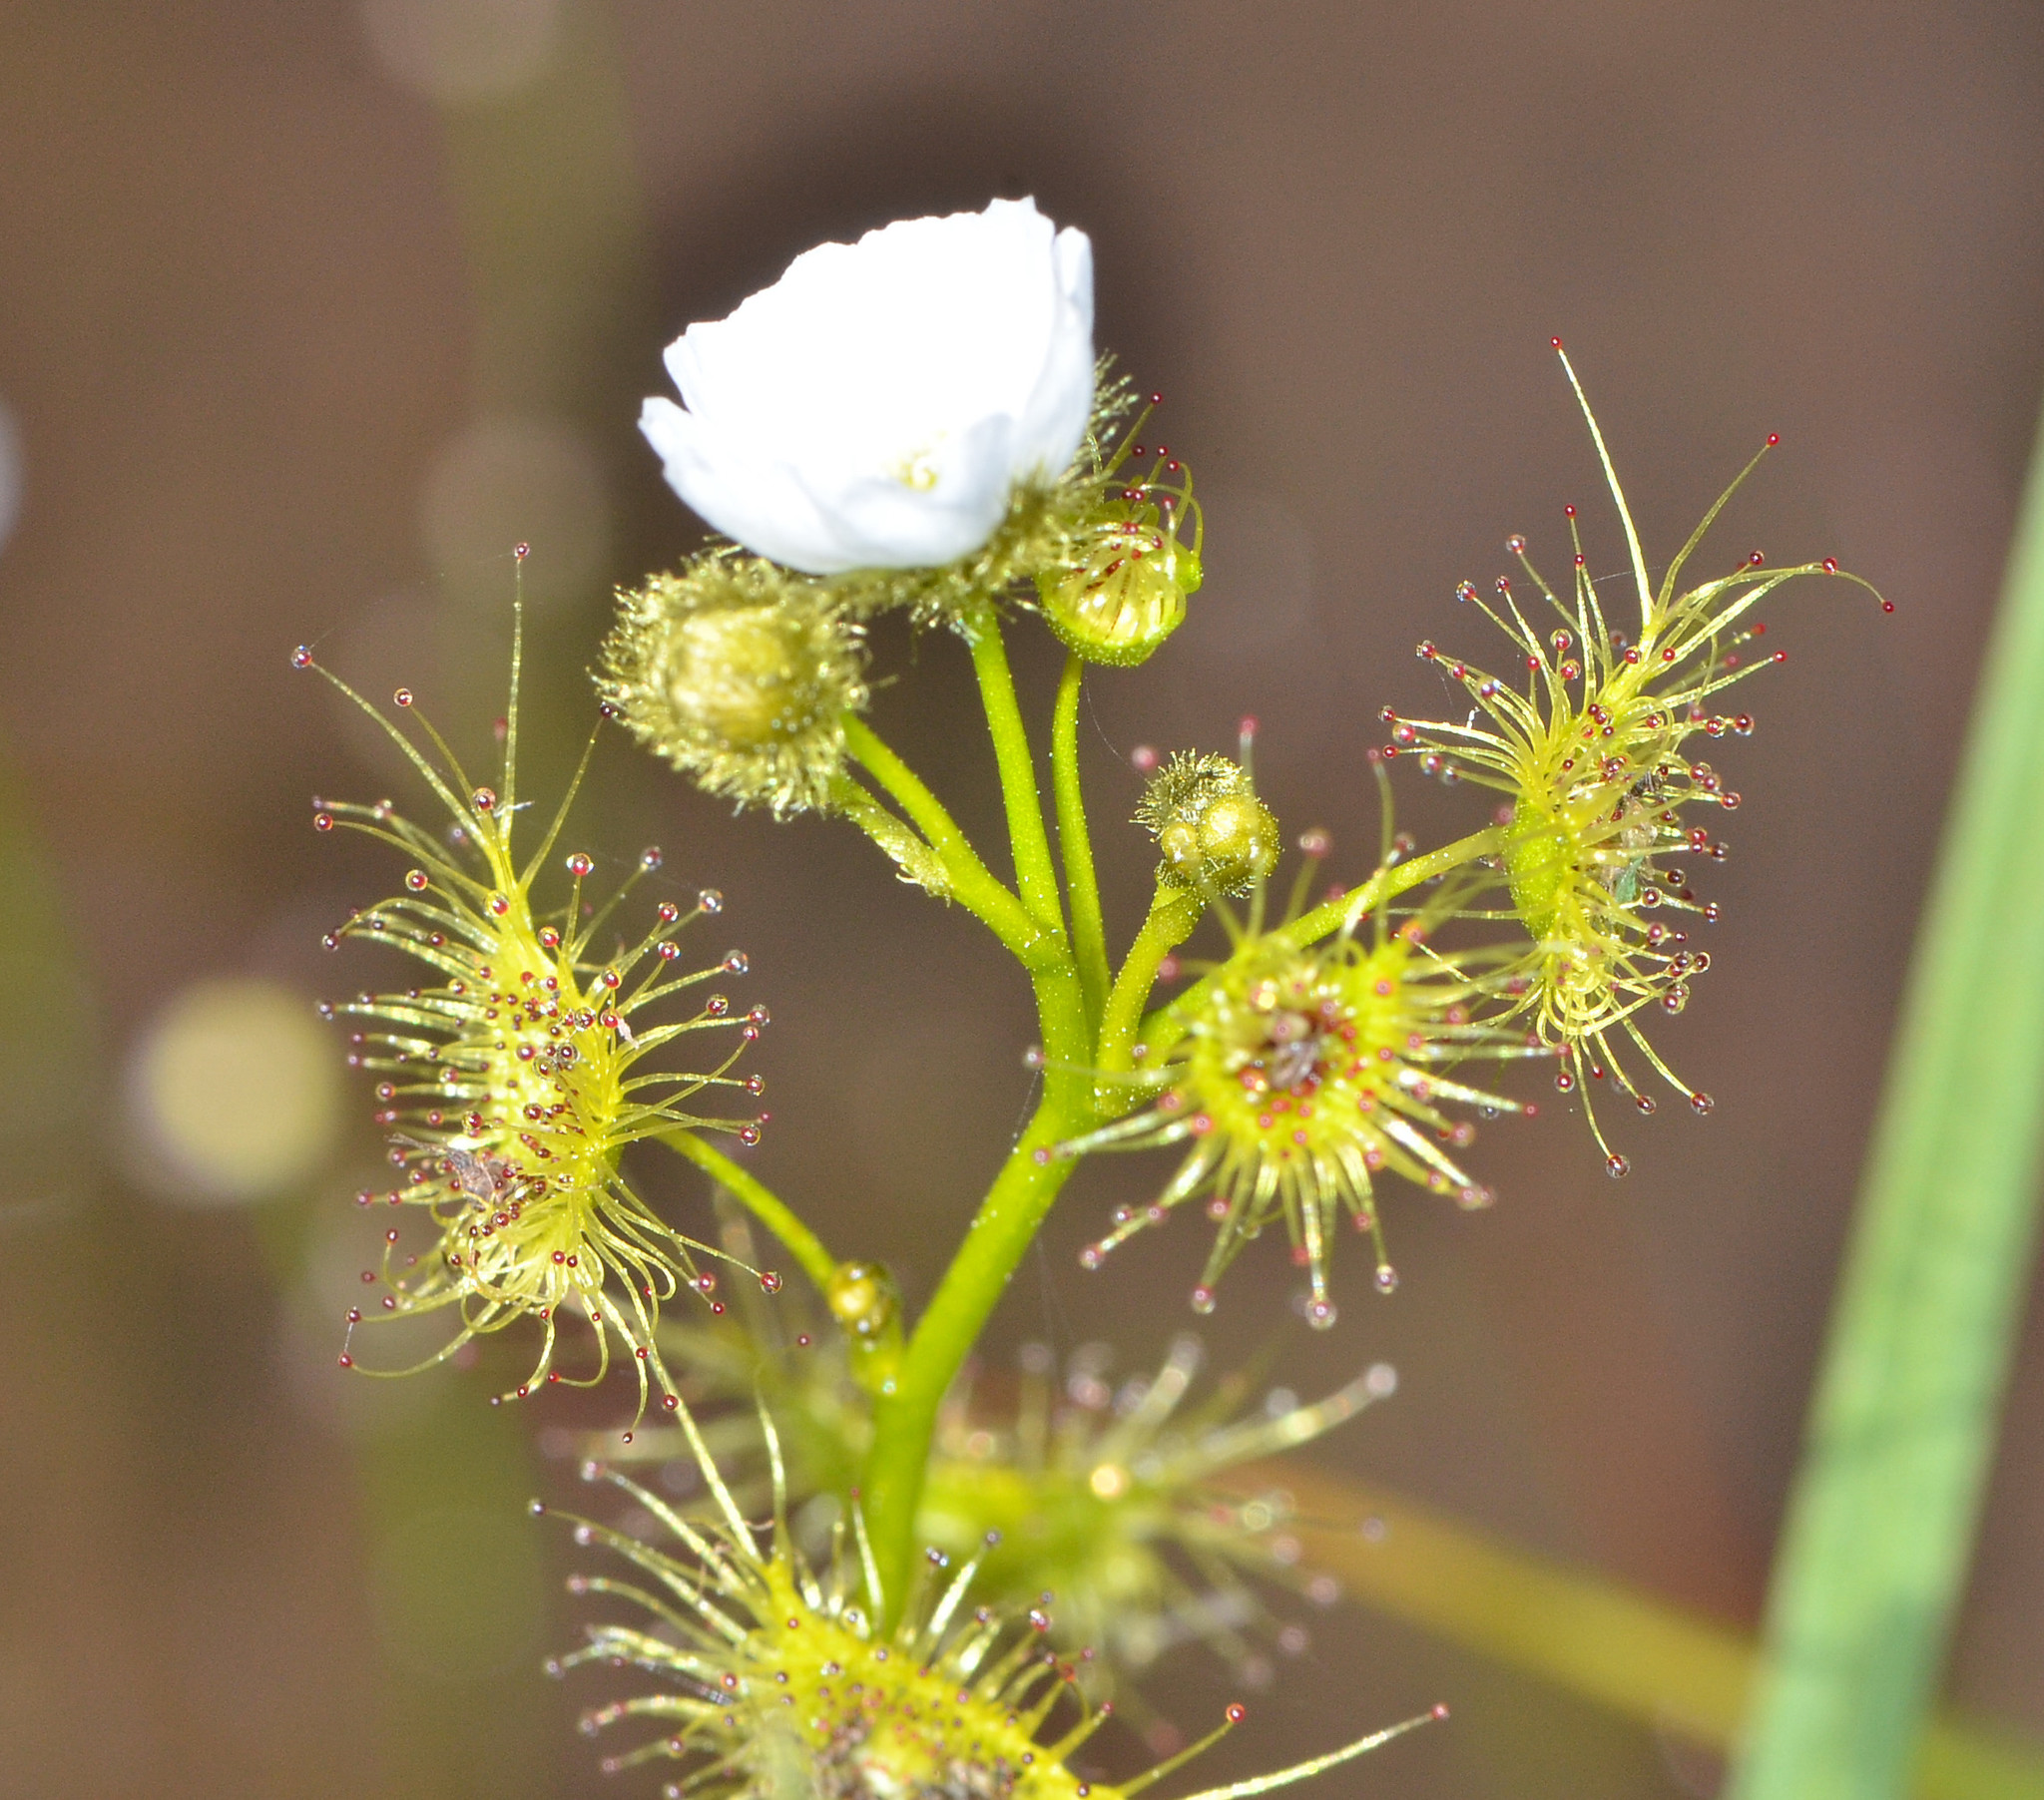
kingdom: Plantae
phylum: Tracheophyta
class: Magnoliopsida
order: Caryophyllales
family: Droseraceae
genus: Drosera
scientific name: Drosera gunniana
